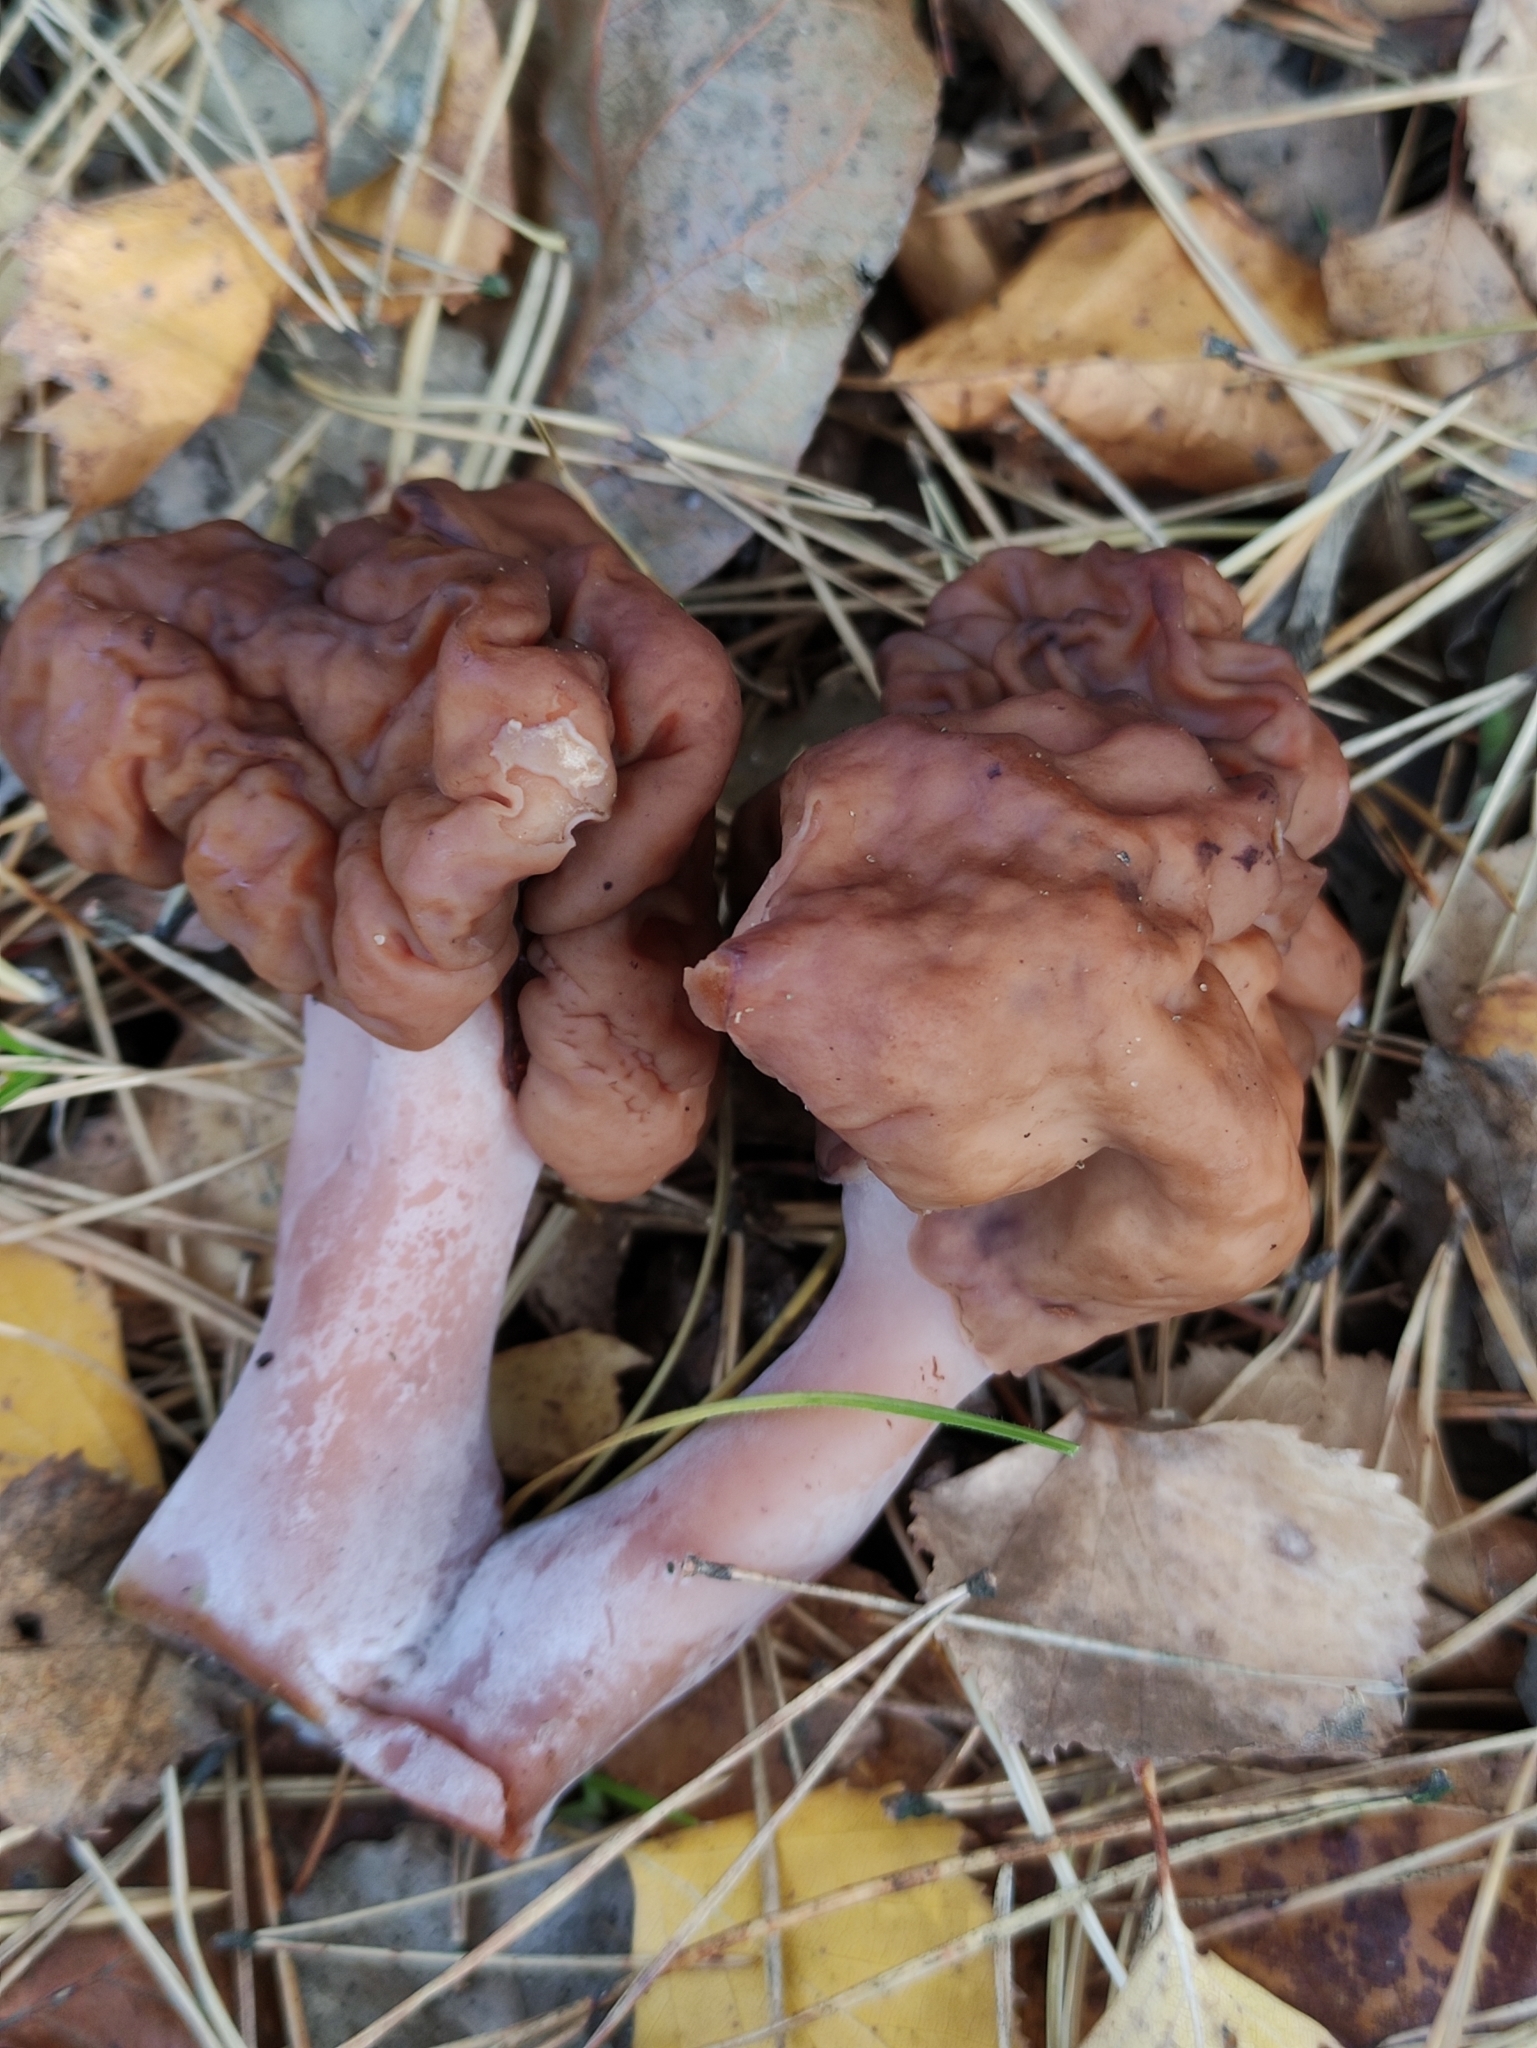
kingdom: Fungi
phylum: Ascomycota
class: Pezizomycetes
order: Pezizales
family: Discinaceae
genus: Gyromitra
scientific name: Gyromitra infula
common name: Pouched false morel
